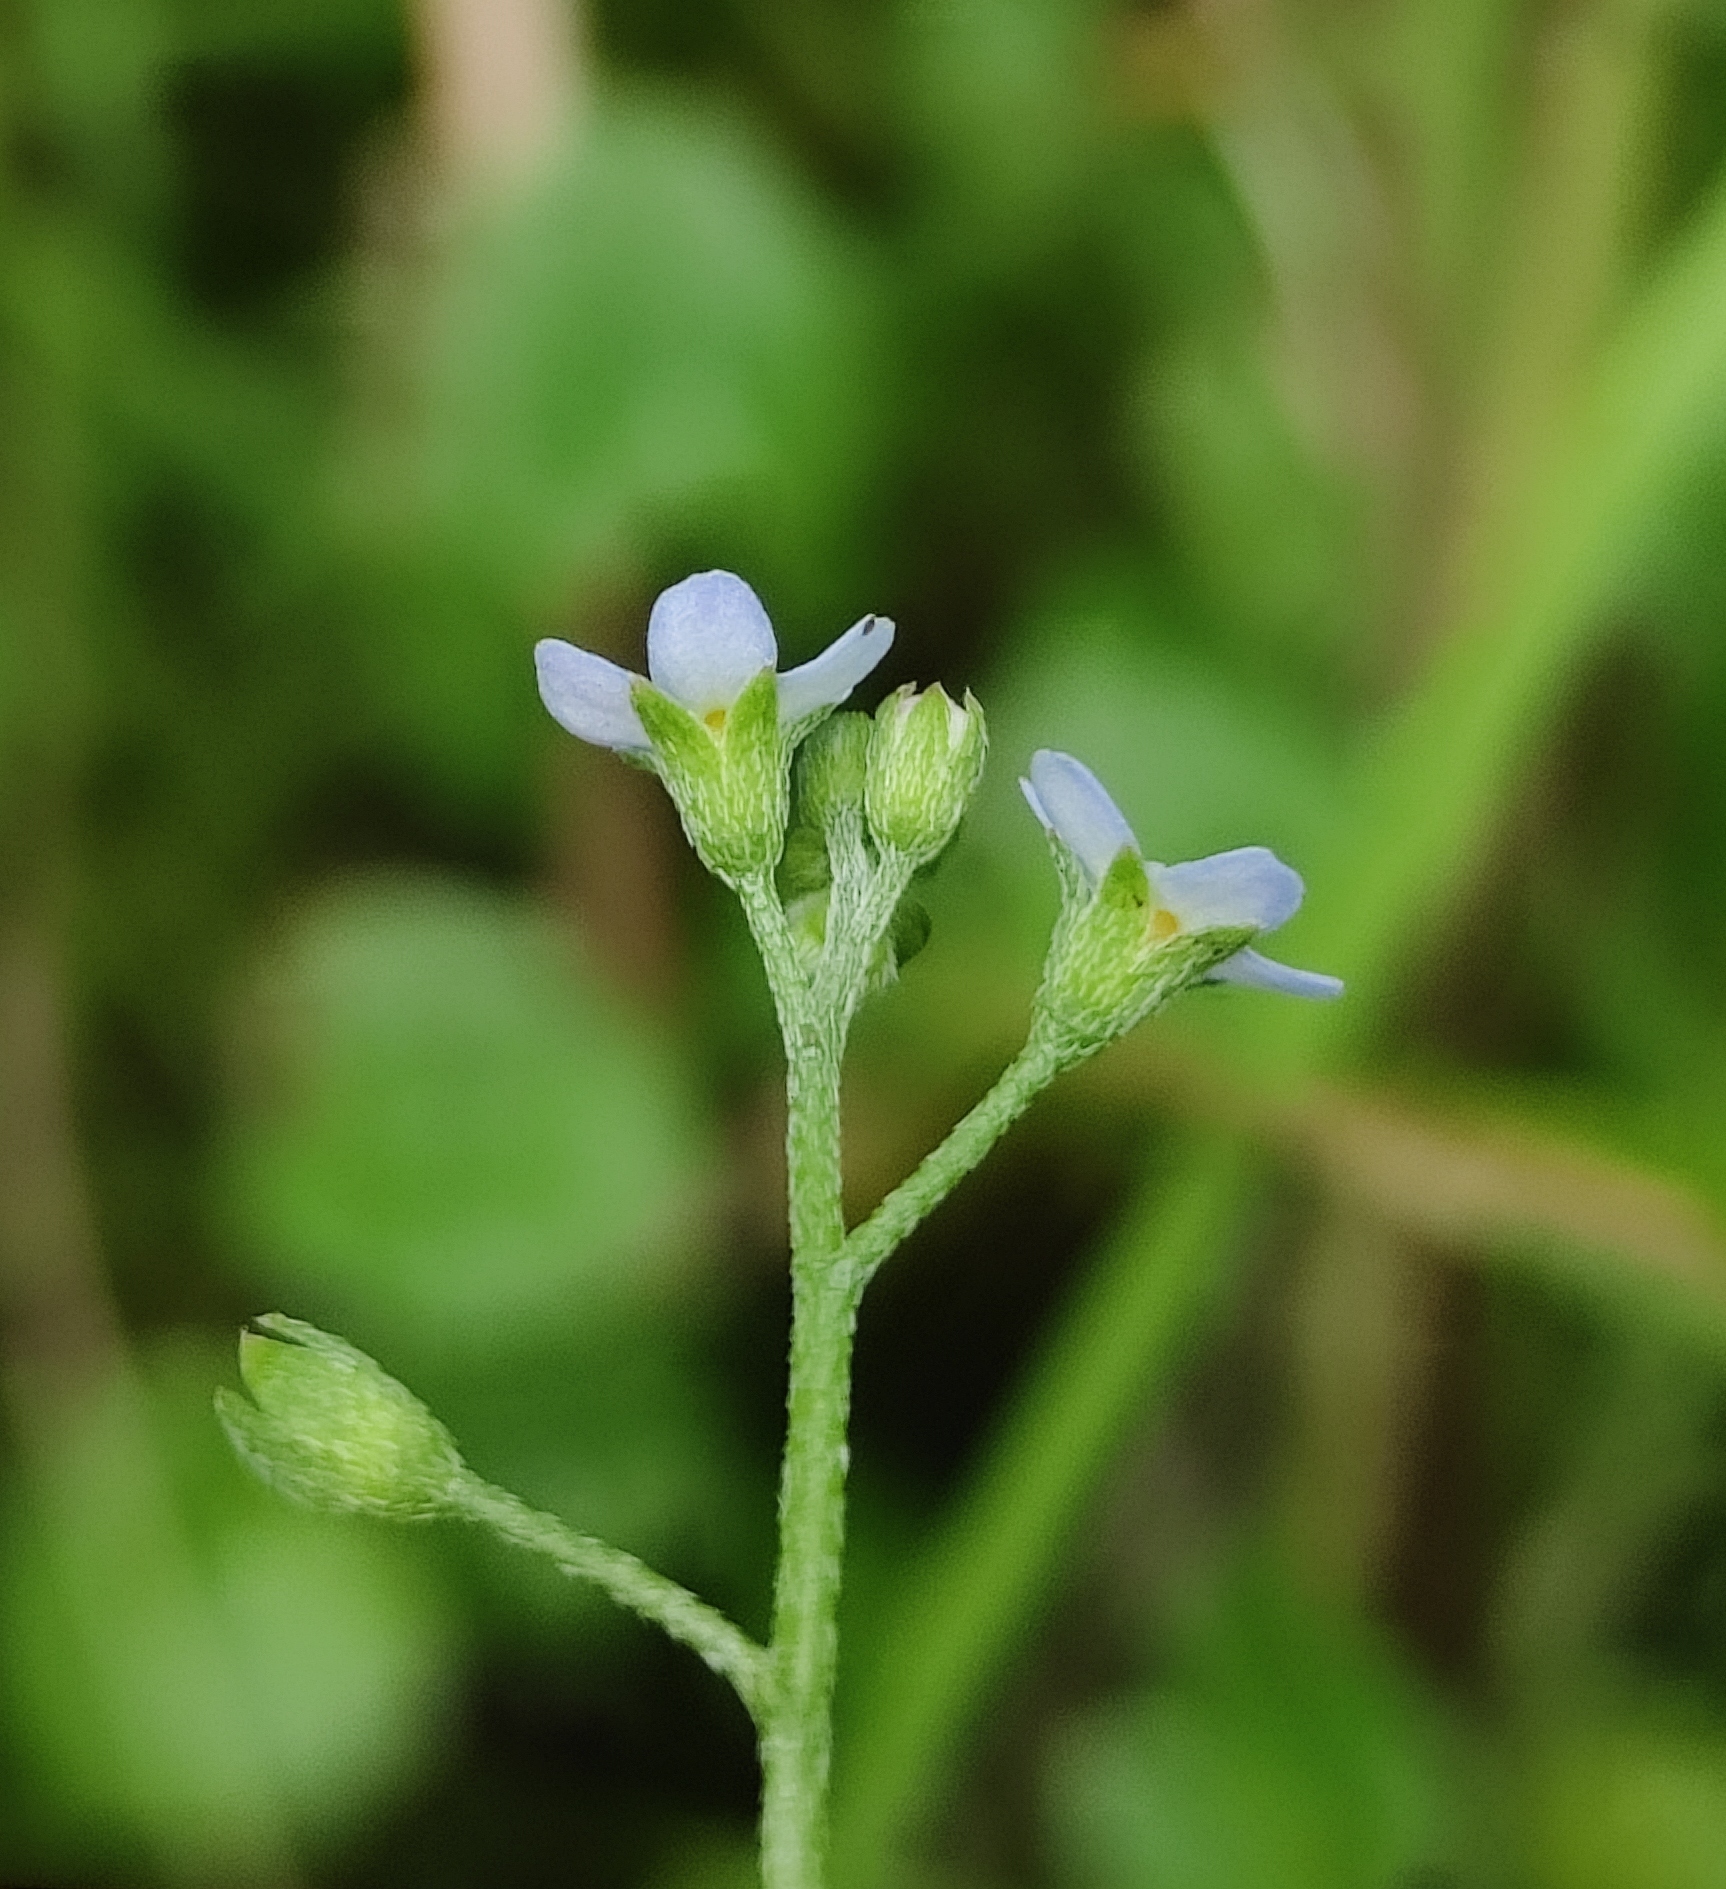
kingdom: Plantae
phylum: Tracheophyta
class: Magnoliopsida
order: Boraginales
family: Boraginaceae
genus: Myosotis
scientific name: Myosotis laxa
